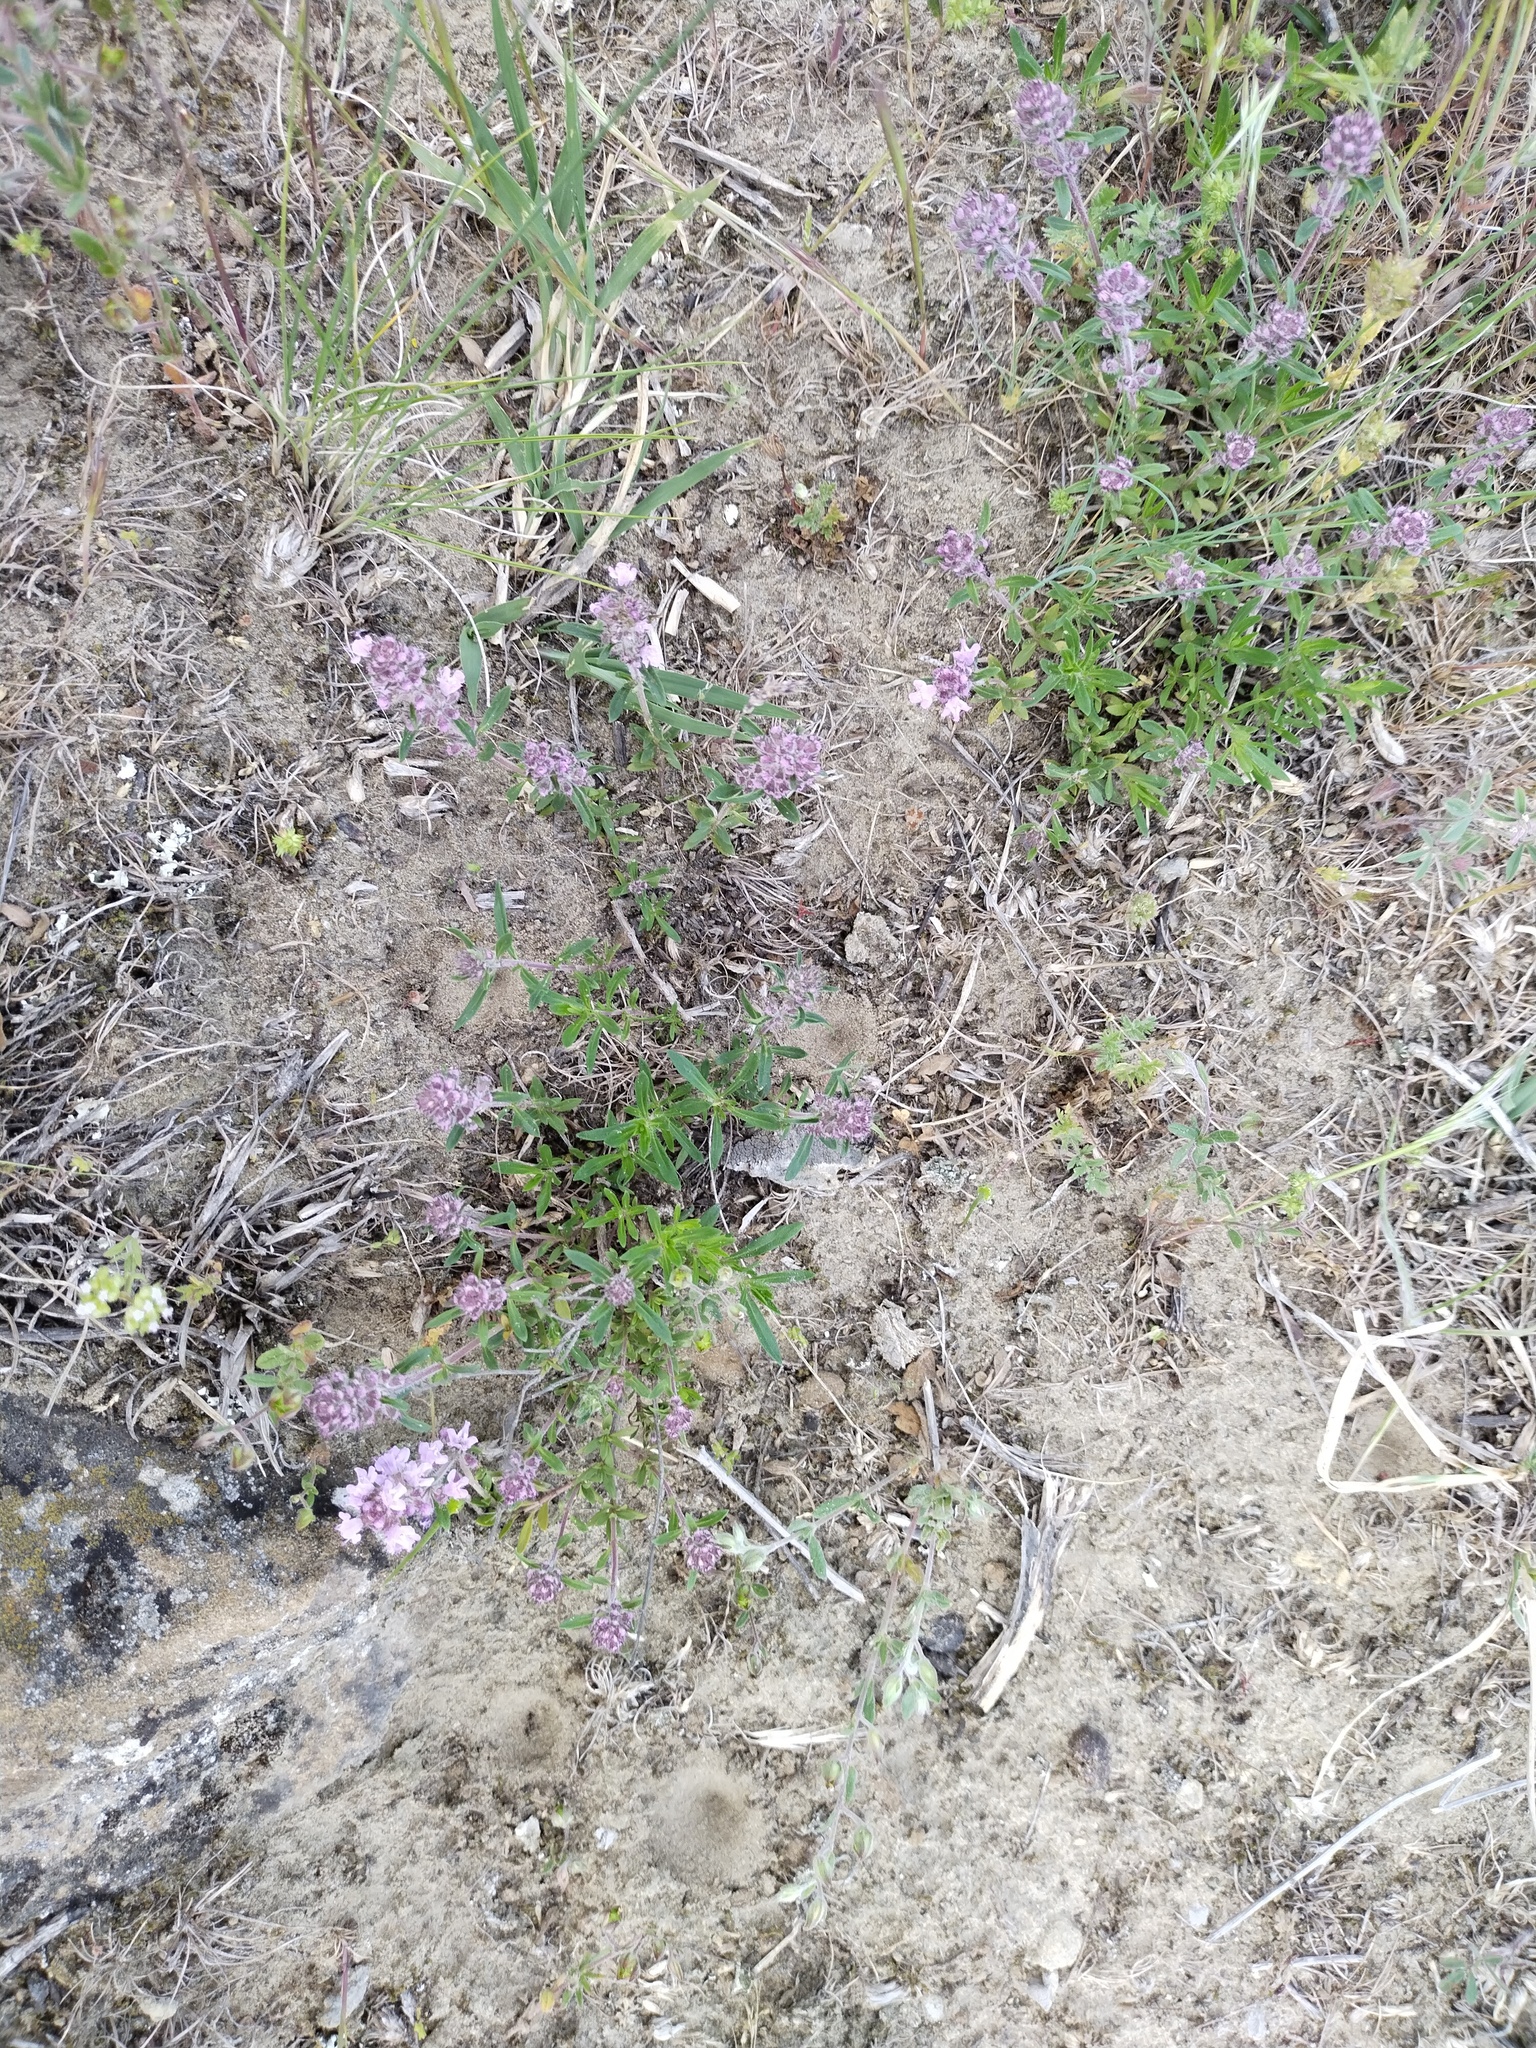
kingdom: Plantae
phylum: Tracheophyta
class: Magnoliopsida
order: Lamiales
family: Lamiaceae
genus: Thymus
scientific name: Thymus pannonicus
